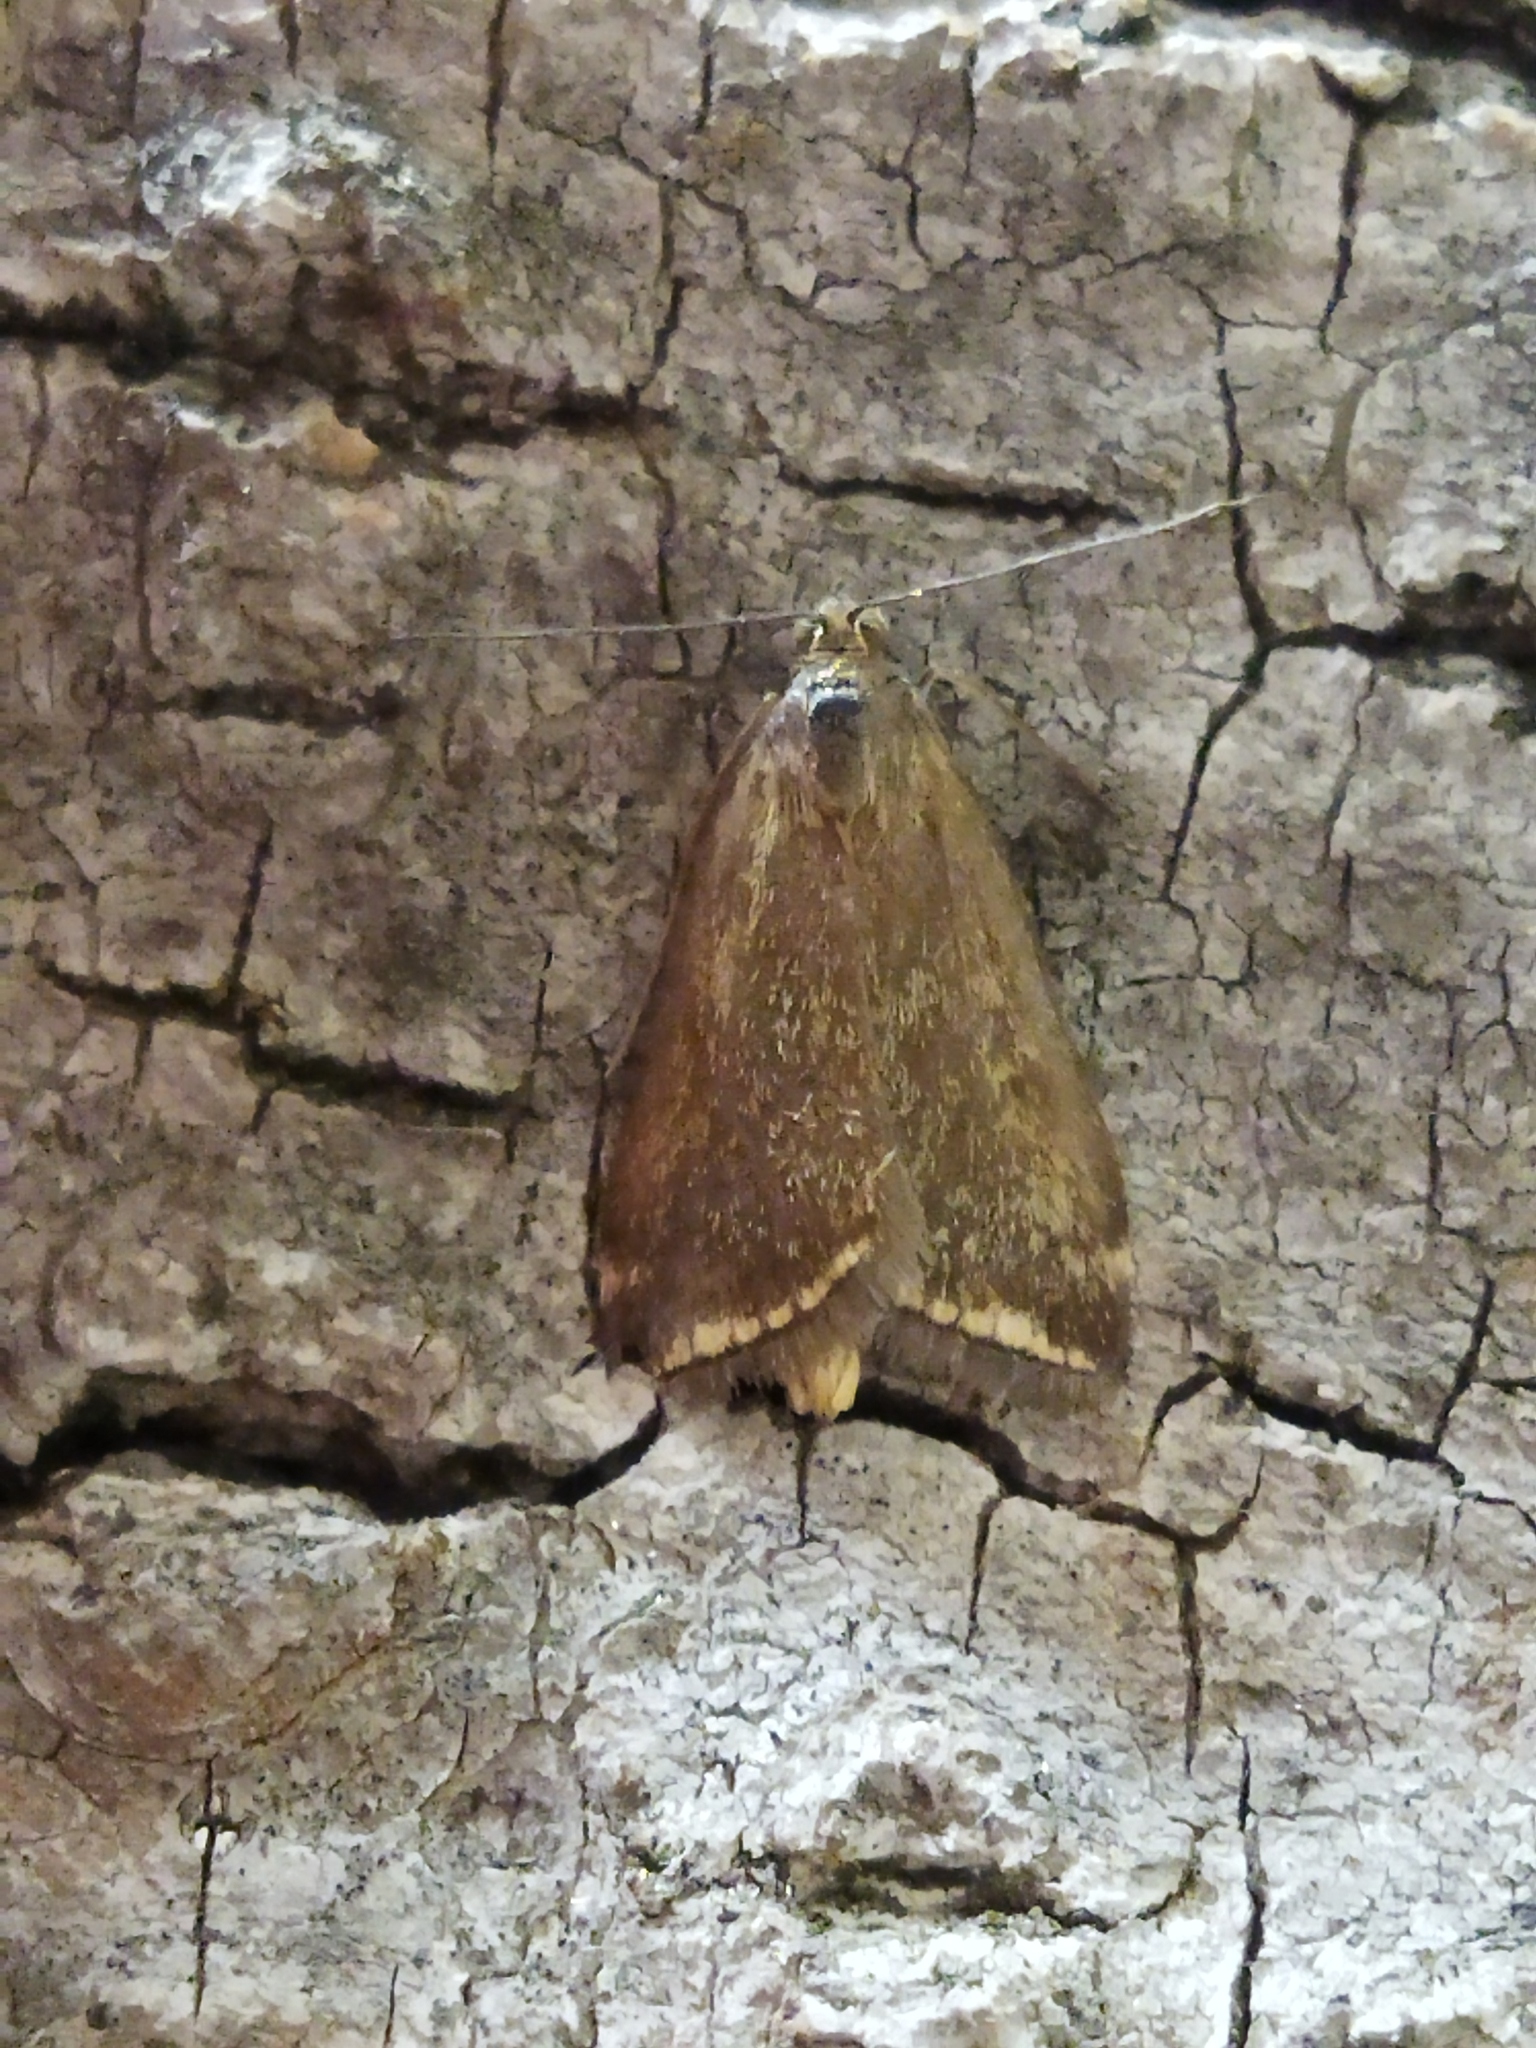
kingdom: Animalia
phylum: Arthropoda
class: Insecta
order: Lepidoptera
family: Crambidae
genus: Loxostege
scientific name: Loxostege sticticalis
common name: Crambid moth
